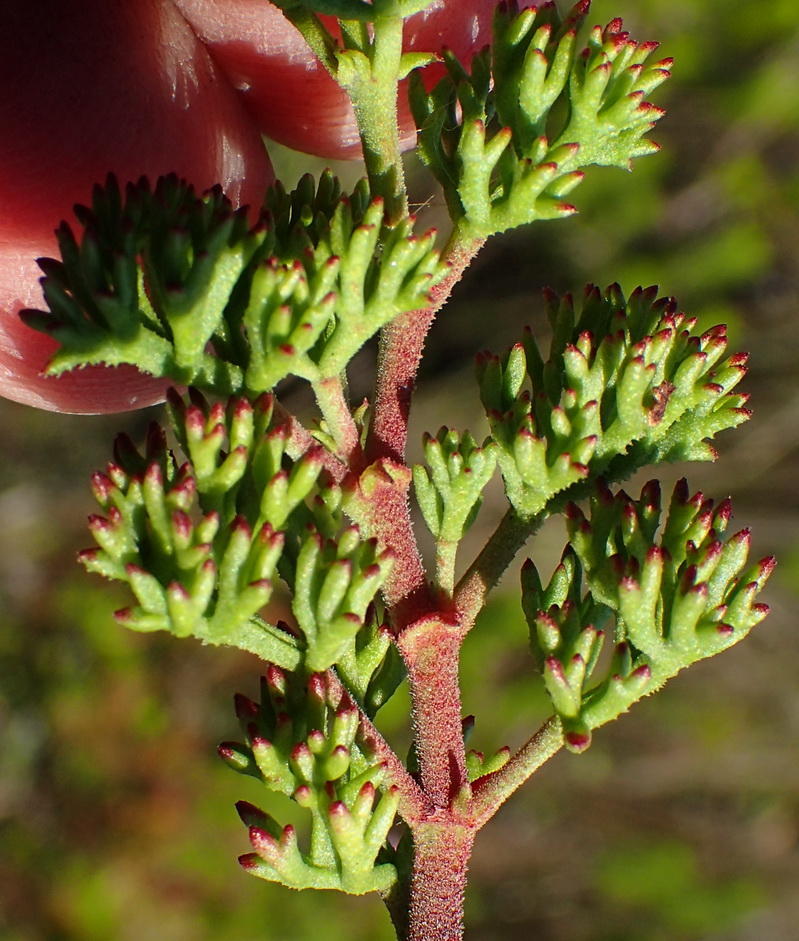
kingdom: Plantae
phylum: Tracheophyta
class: Magnoliopsida
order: Geraniales
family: Geraniaceae
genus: Pelargonium
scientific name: Pelargonium fruticosum
